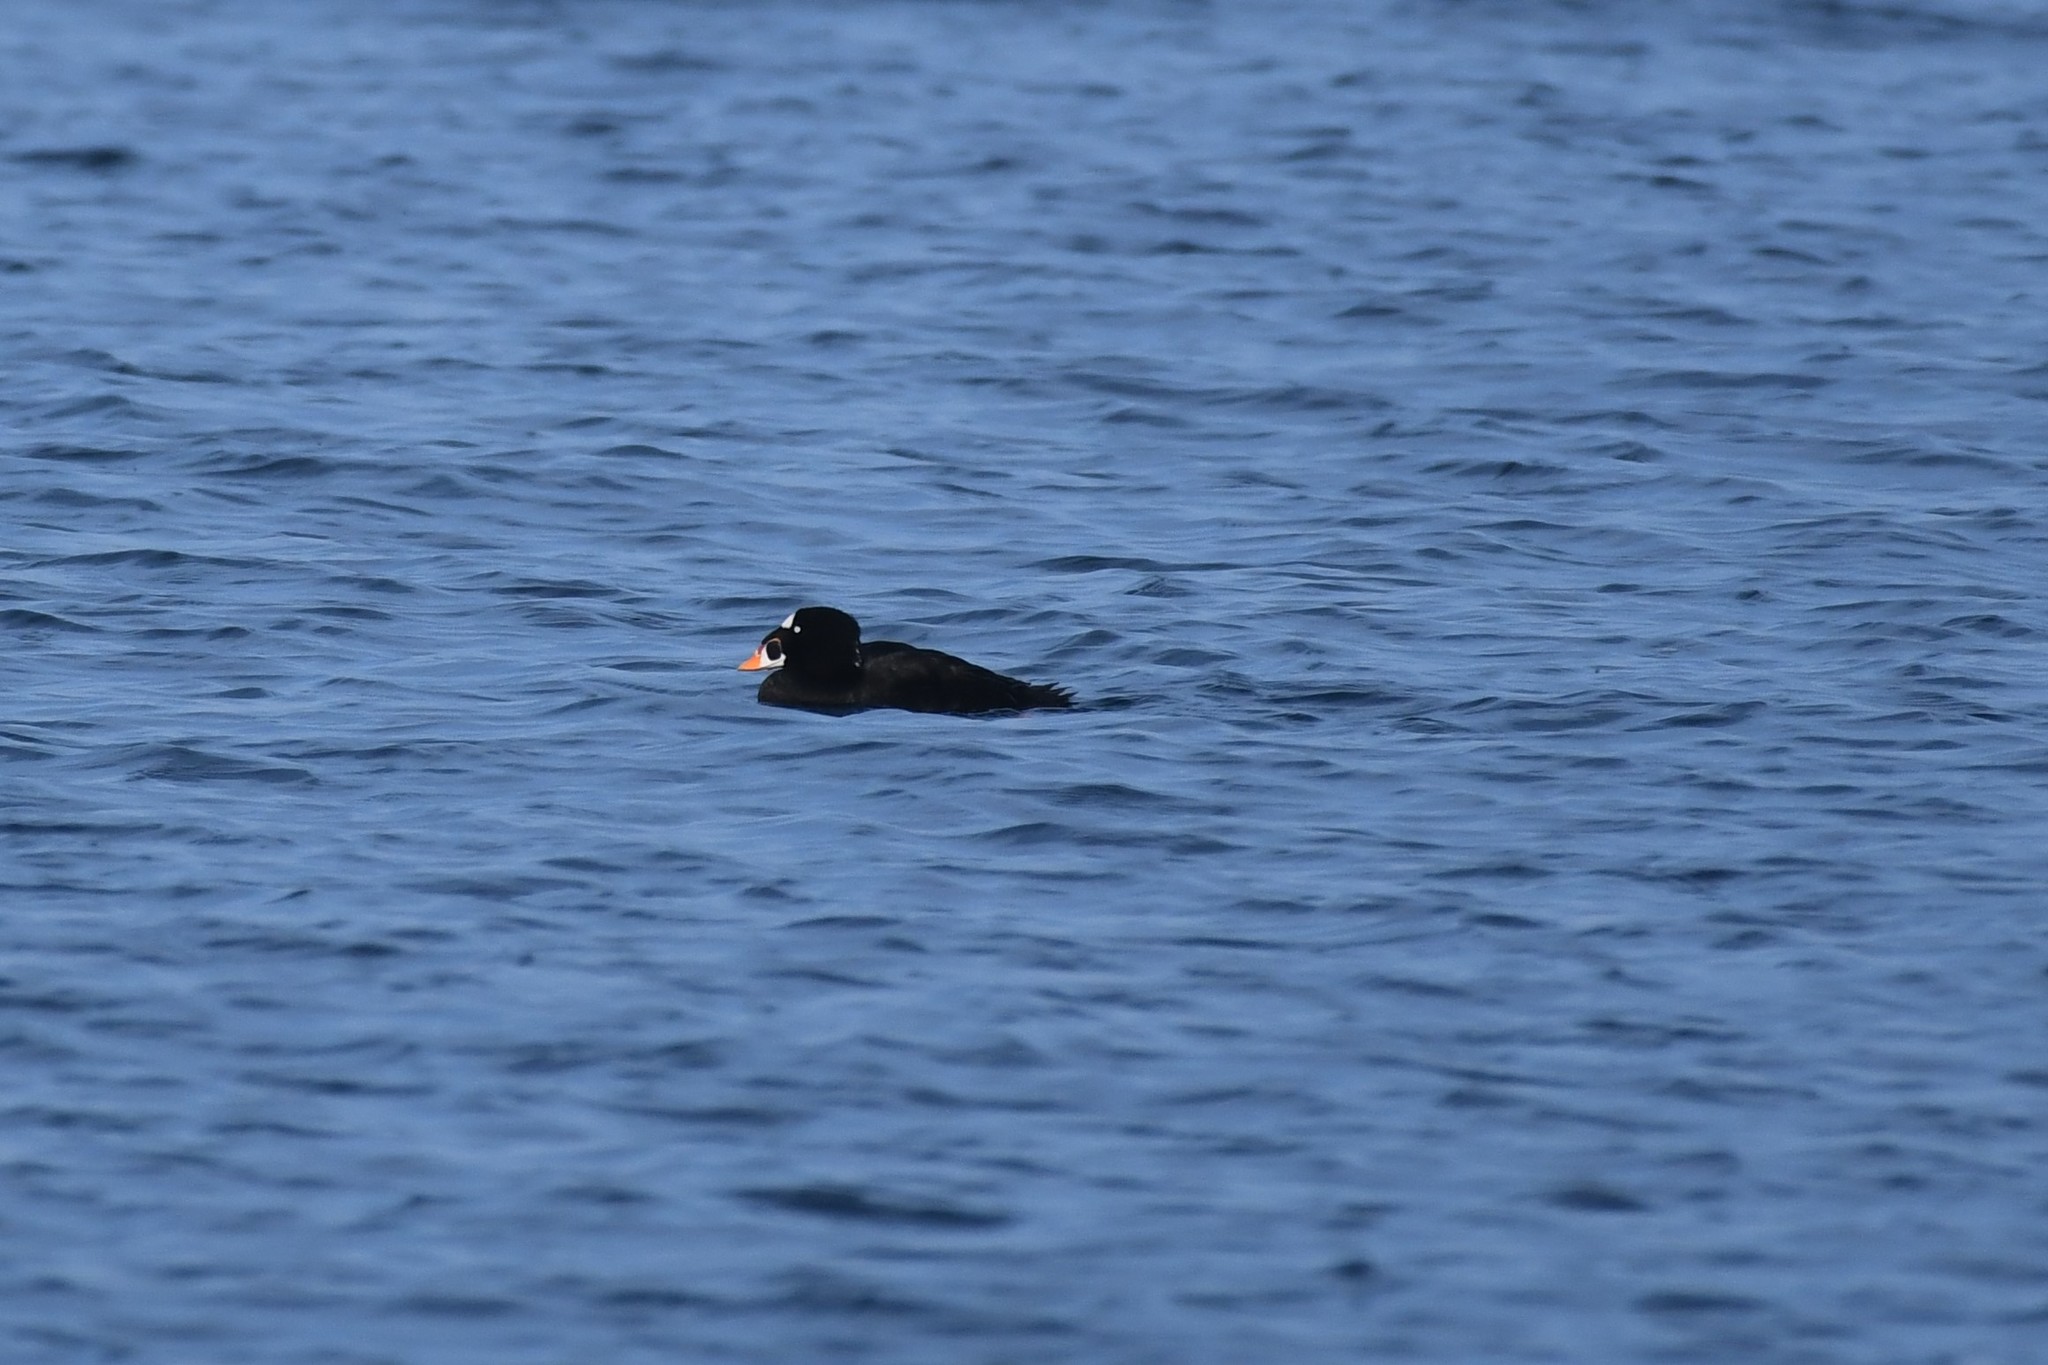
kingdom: Animalia
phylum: Chordata
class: Aves
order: Anseriformes
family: Anatidae
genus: Melanitta
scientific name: Melanitta perspicillata
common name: Surf scoter
